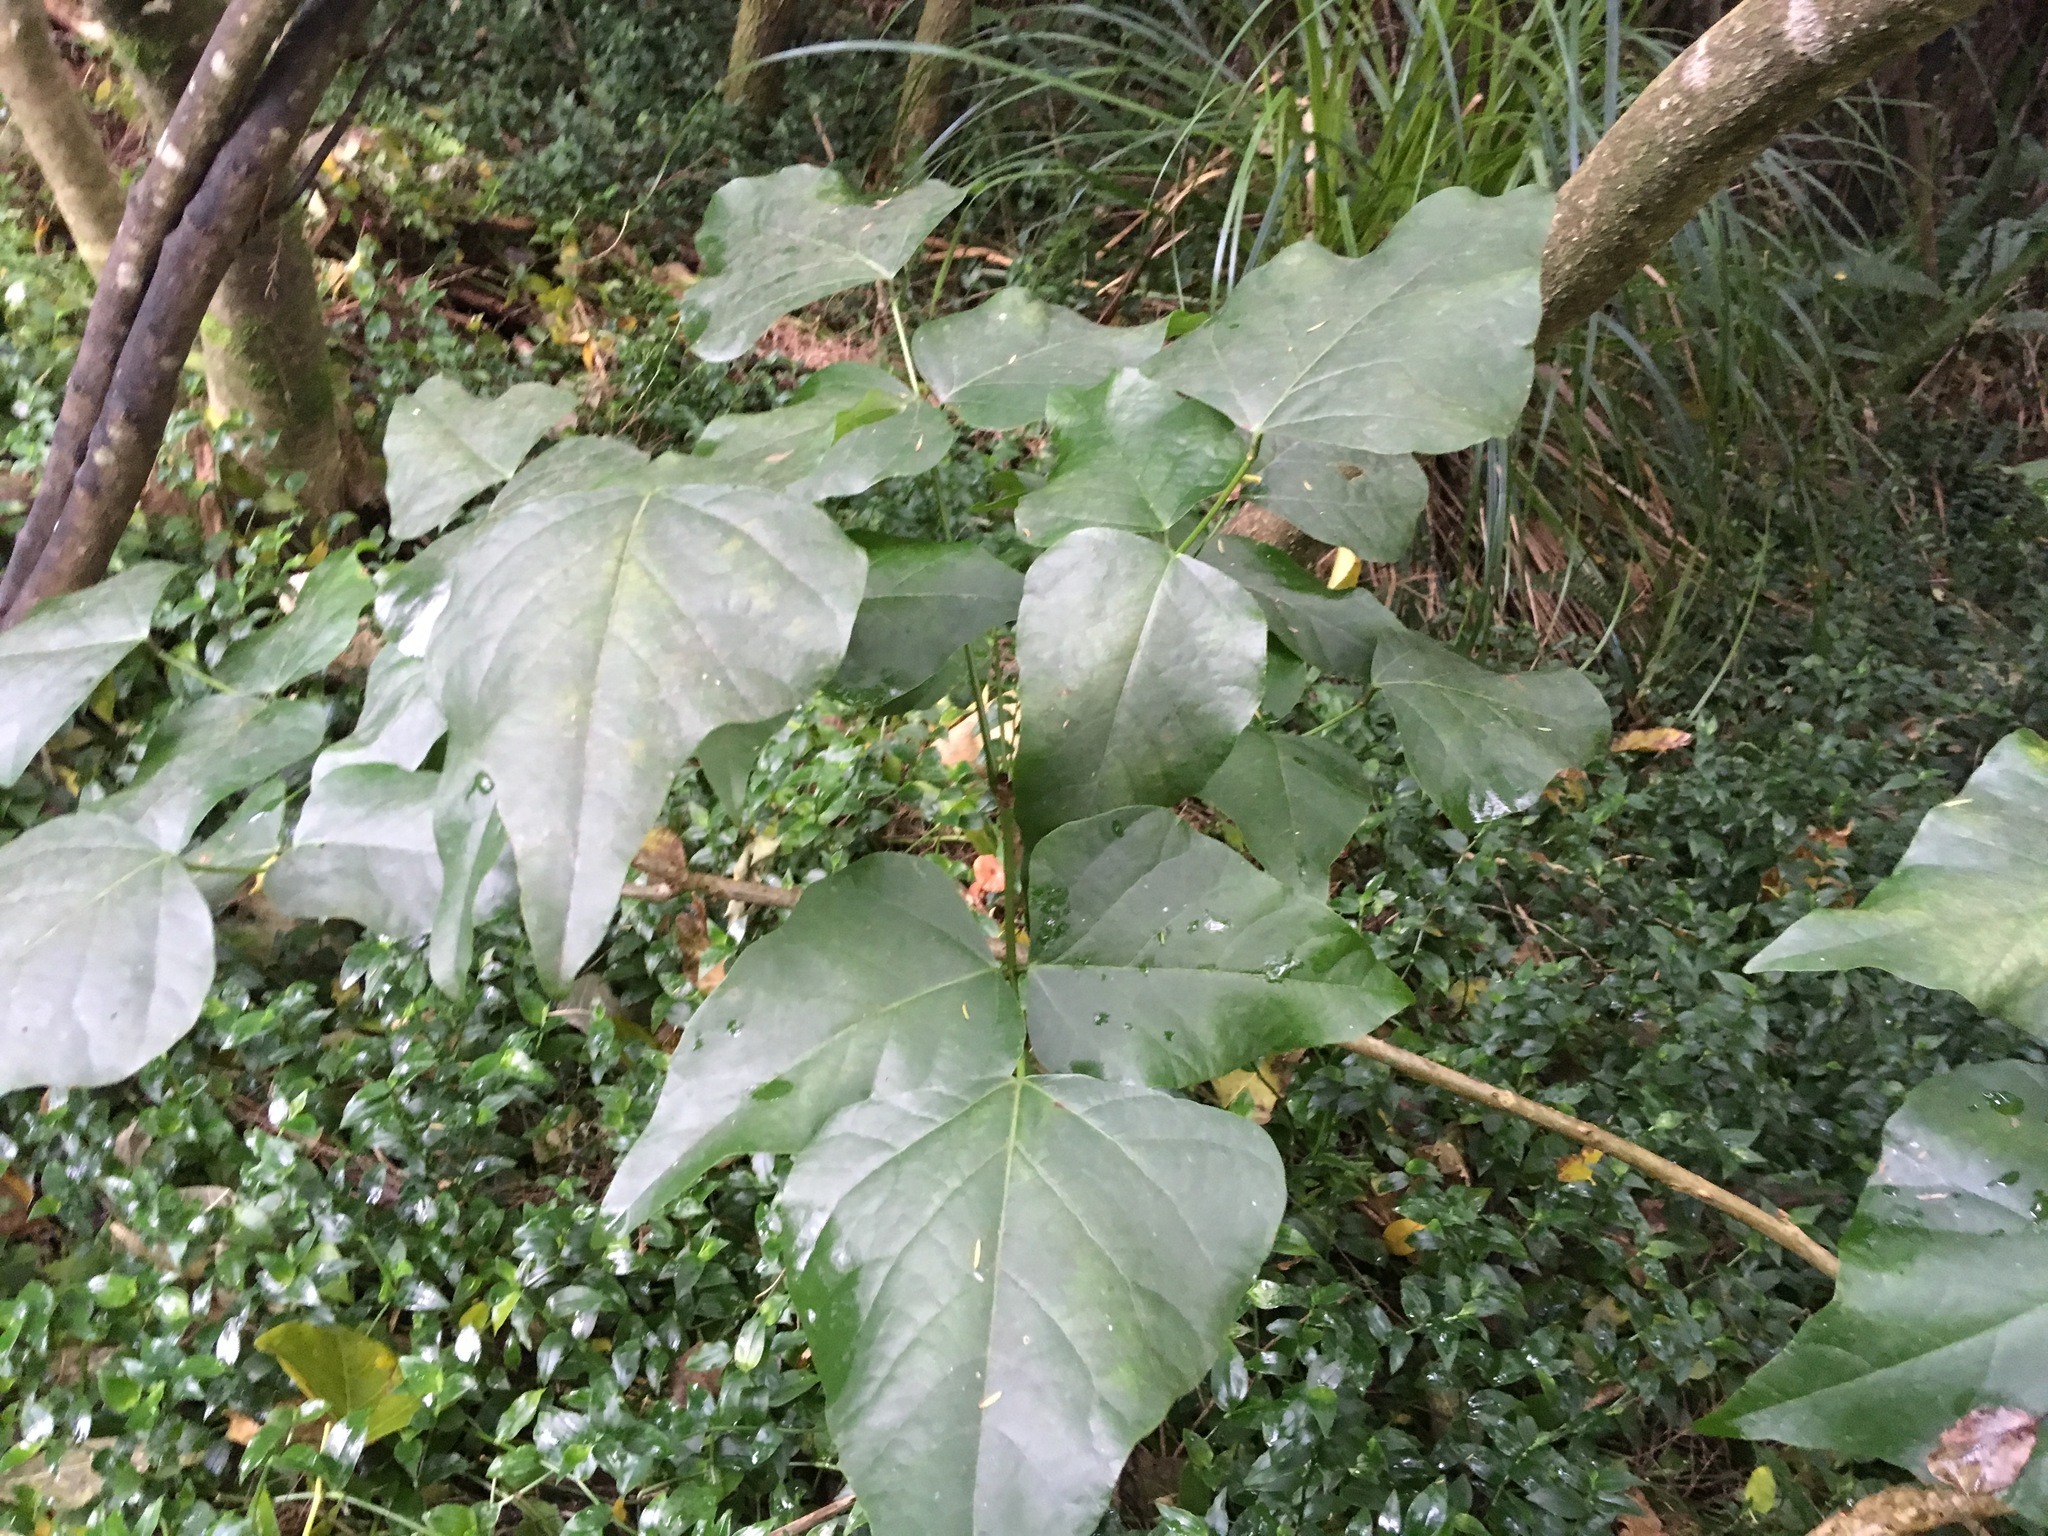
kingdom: Plantae
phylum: Tracheophyta
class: Magnoliopsida
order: Fabales
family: Fabaceae
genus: Erythrina
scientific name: Erythrina sykesii
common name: Coraltree
